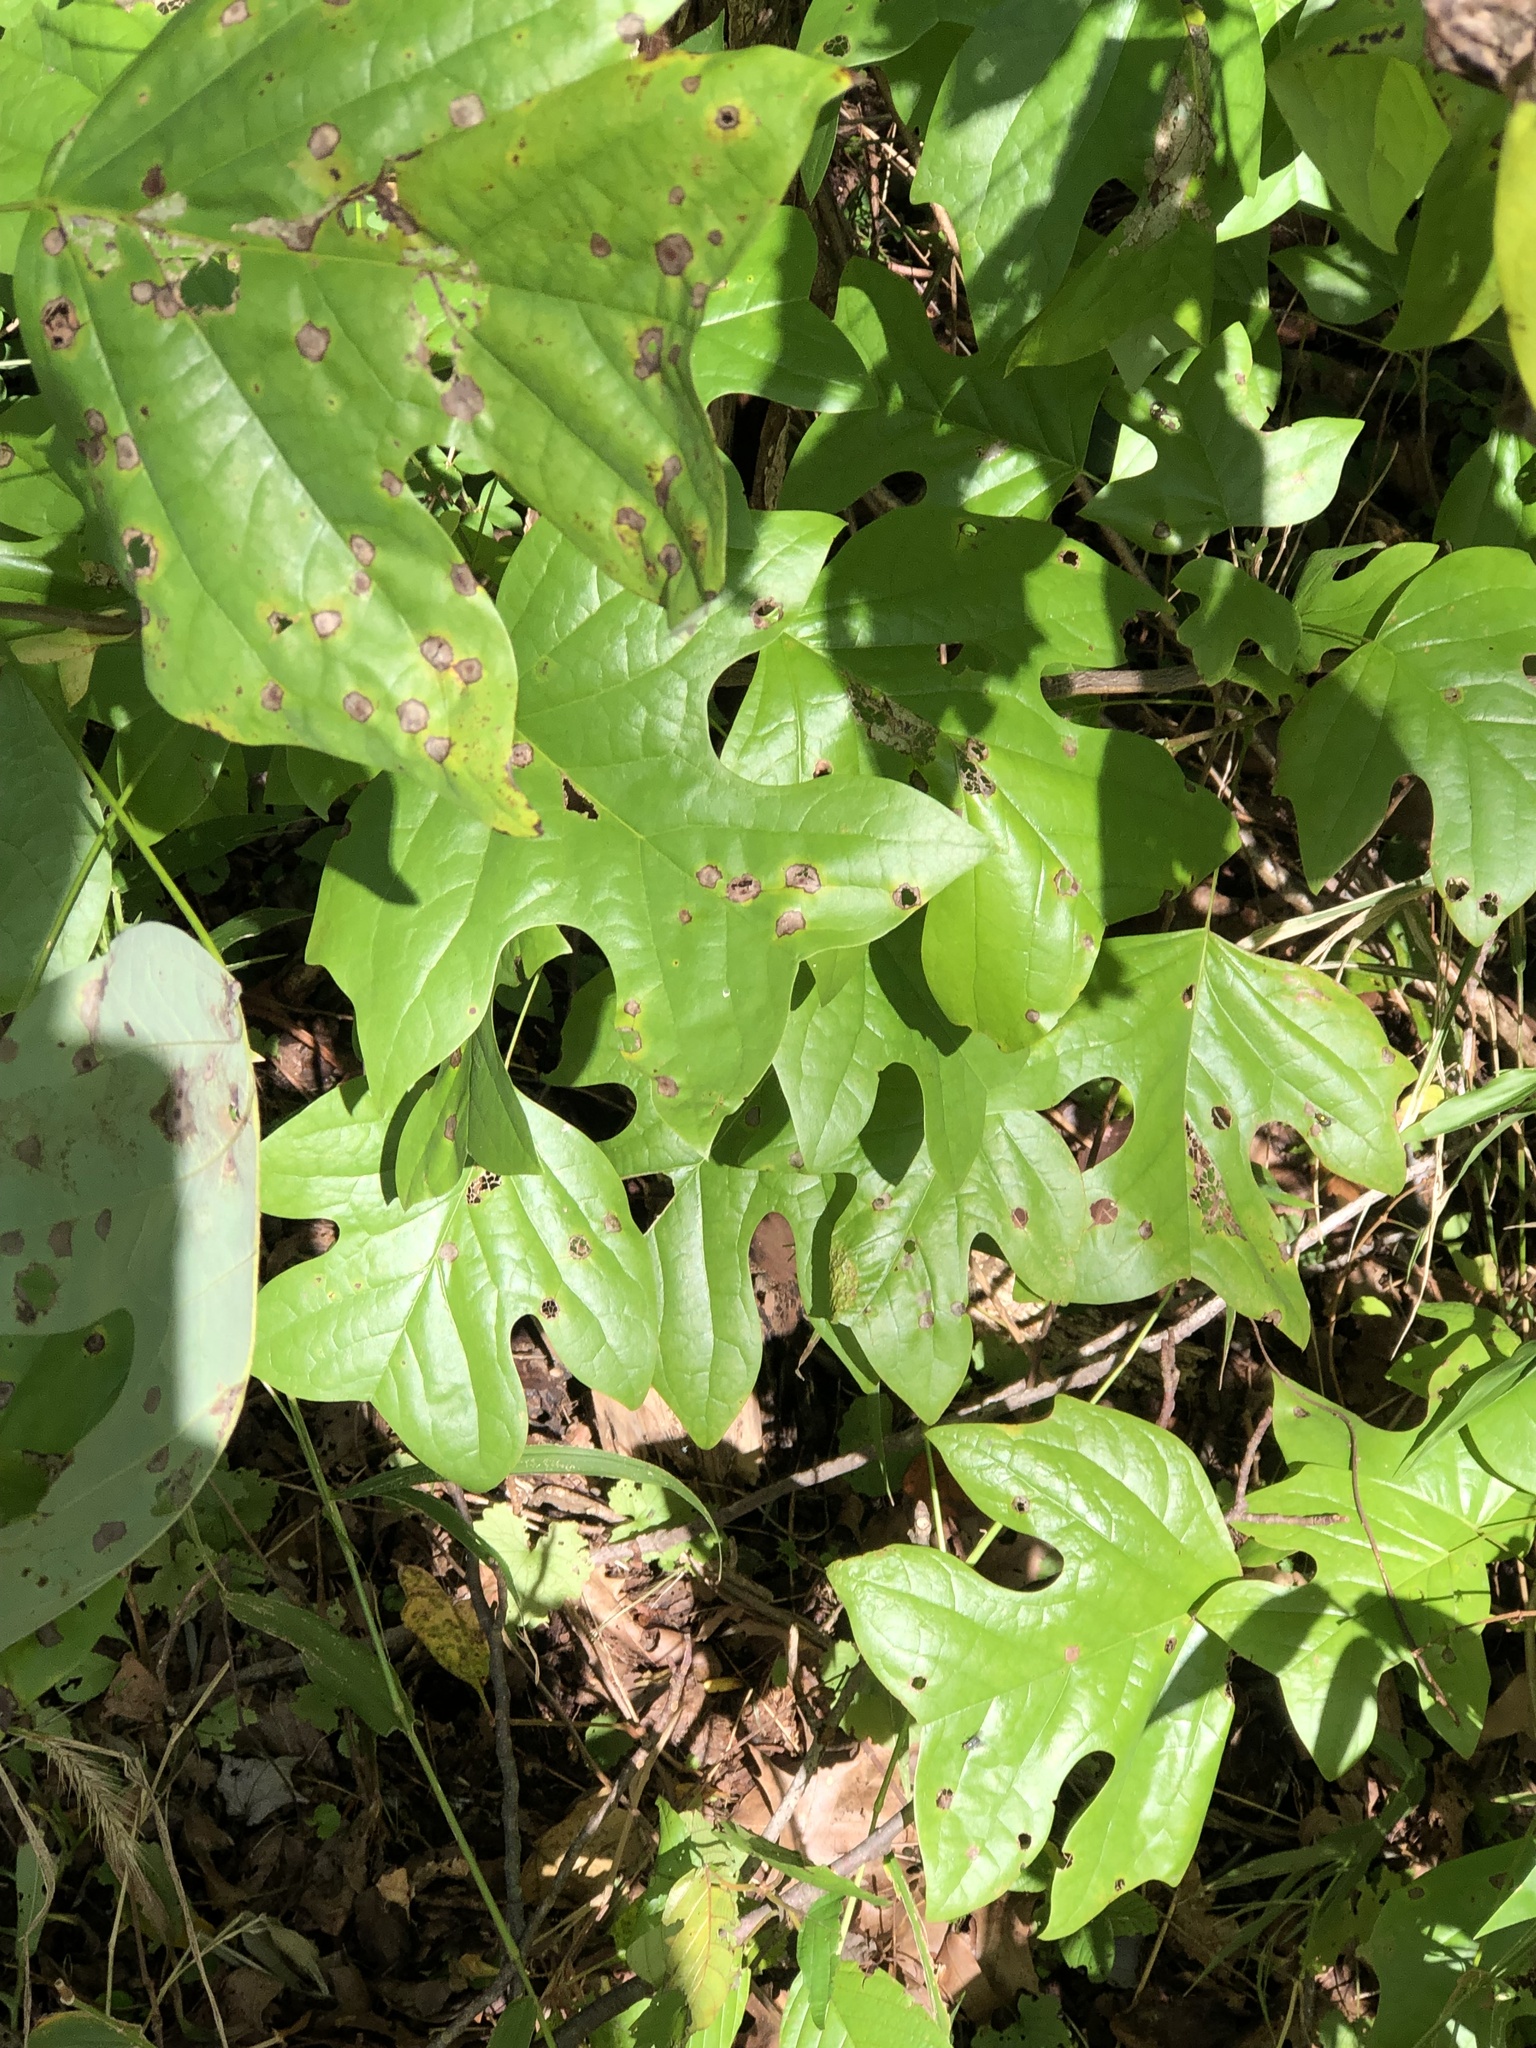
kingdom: Plantae
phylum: Tracheophyta
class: Magnoliopsida
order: Magnoliales
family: Magnoliaceae
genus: Liriodendron
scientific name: Liriodendron tulipifera
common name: Tulip tree
